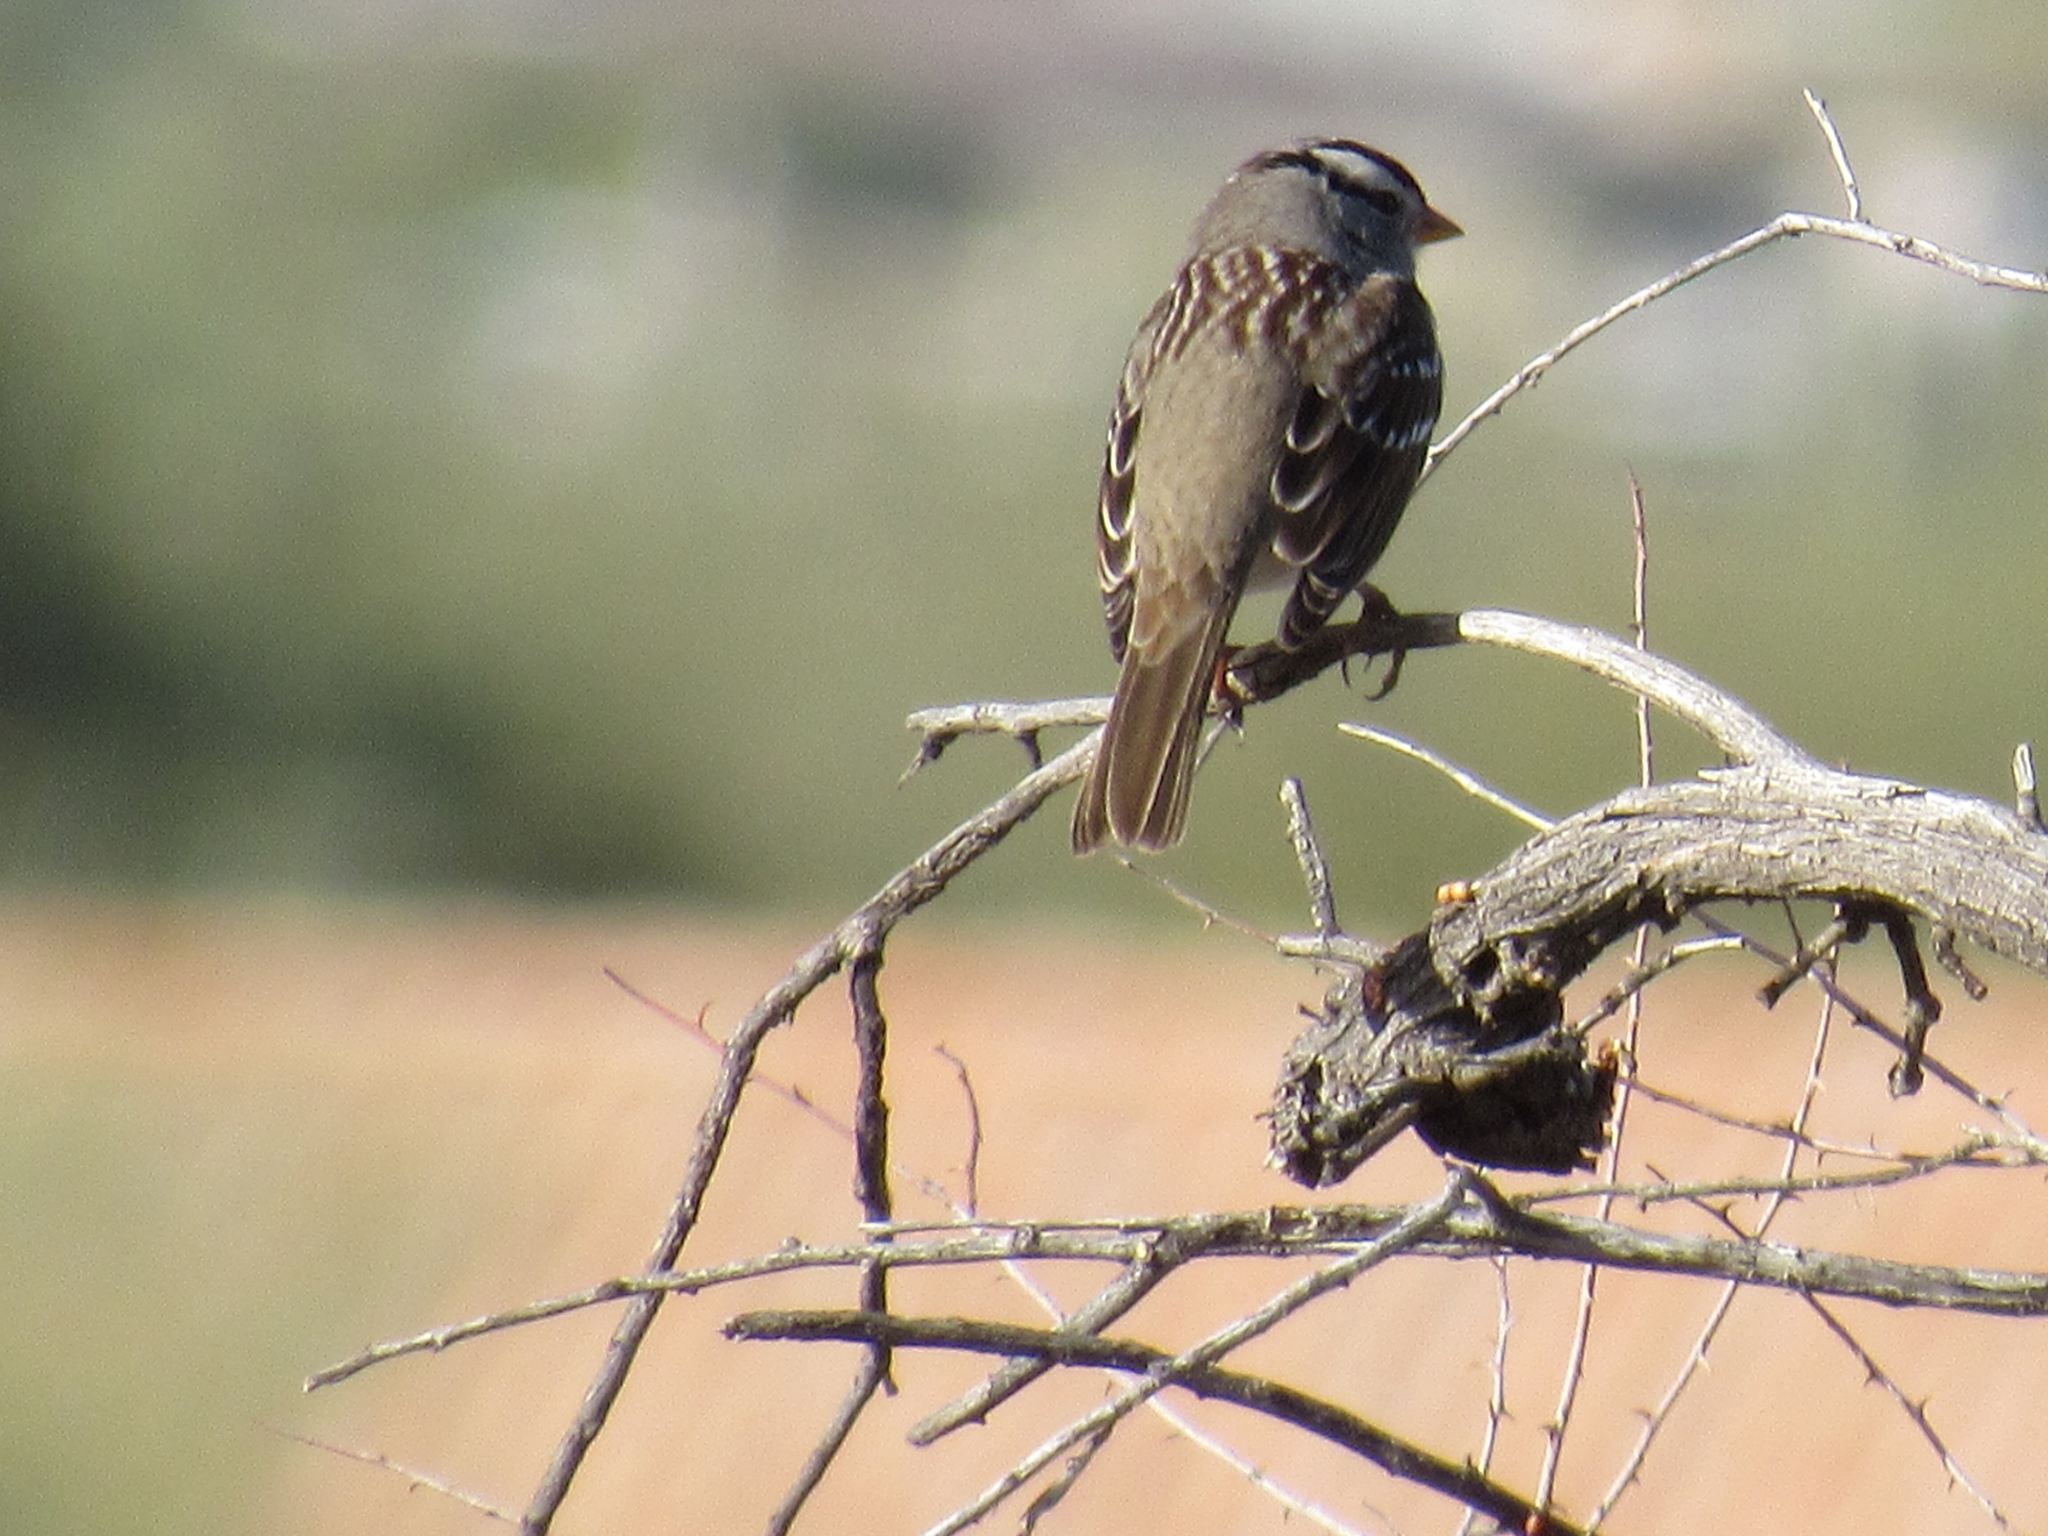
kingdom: Animalia
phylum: Chordata
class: Aves
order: Passeriformes
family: Passerellidae
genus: Zonotrichia
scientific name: Zonotrichia leucophrys
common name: White-crowned sparrow
